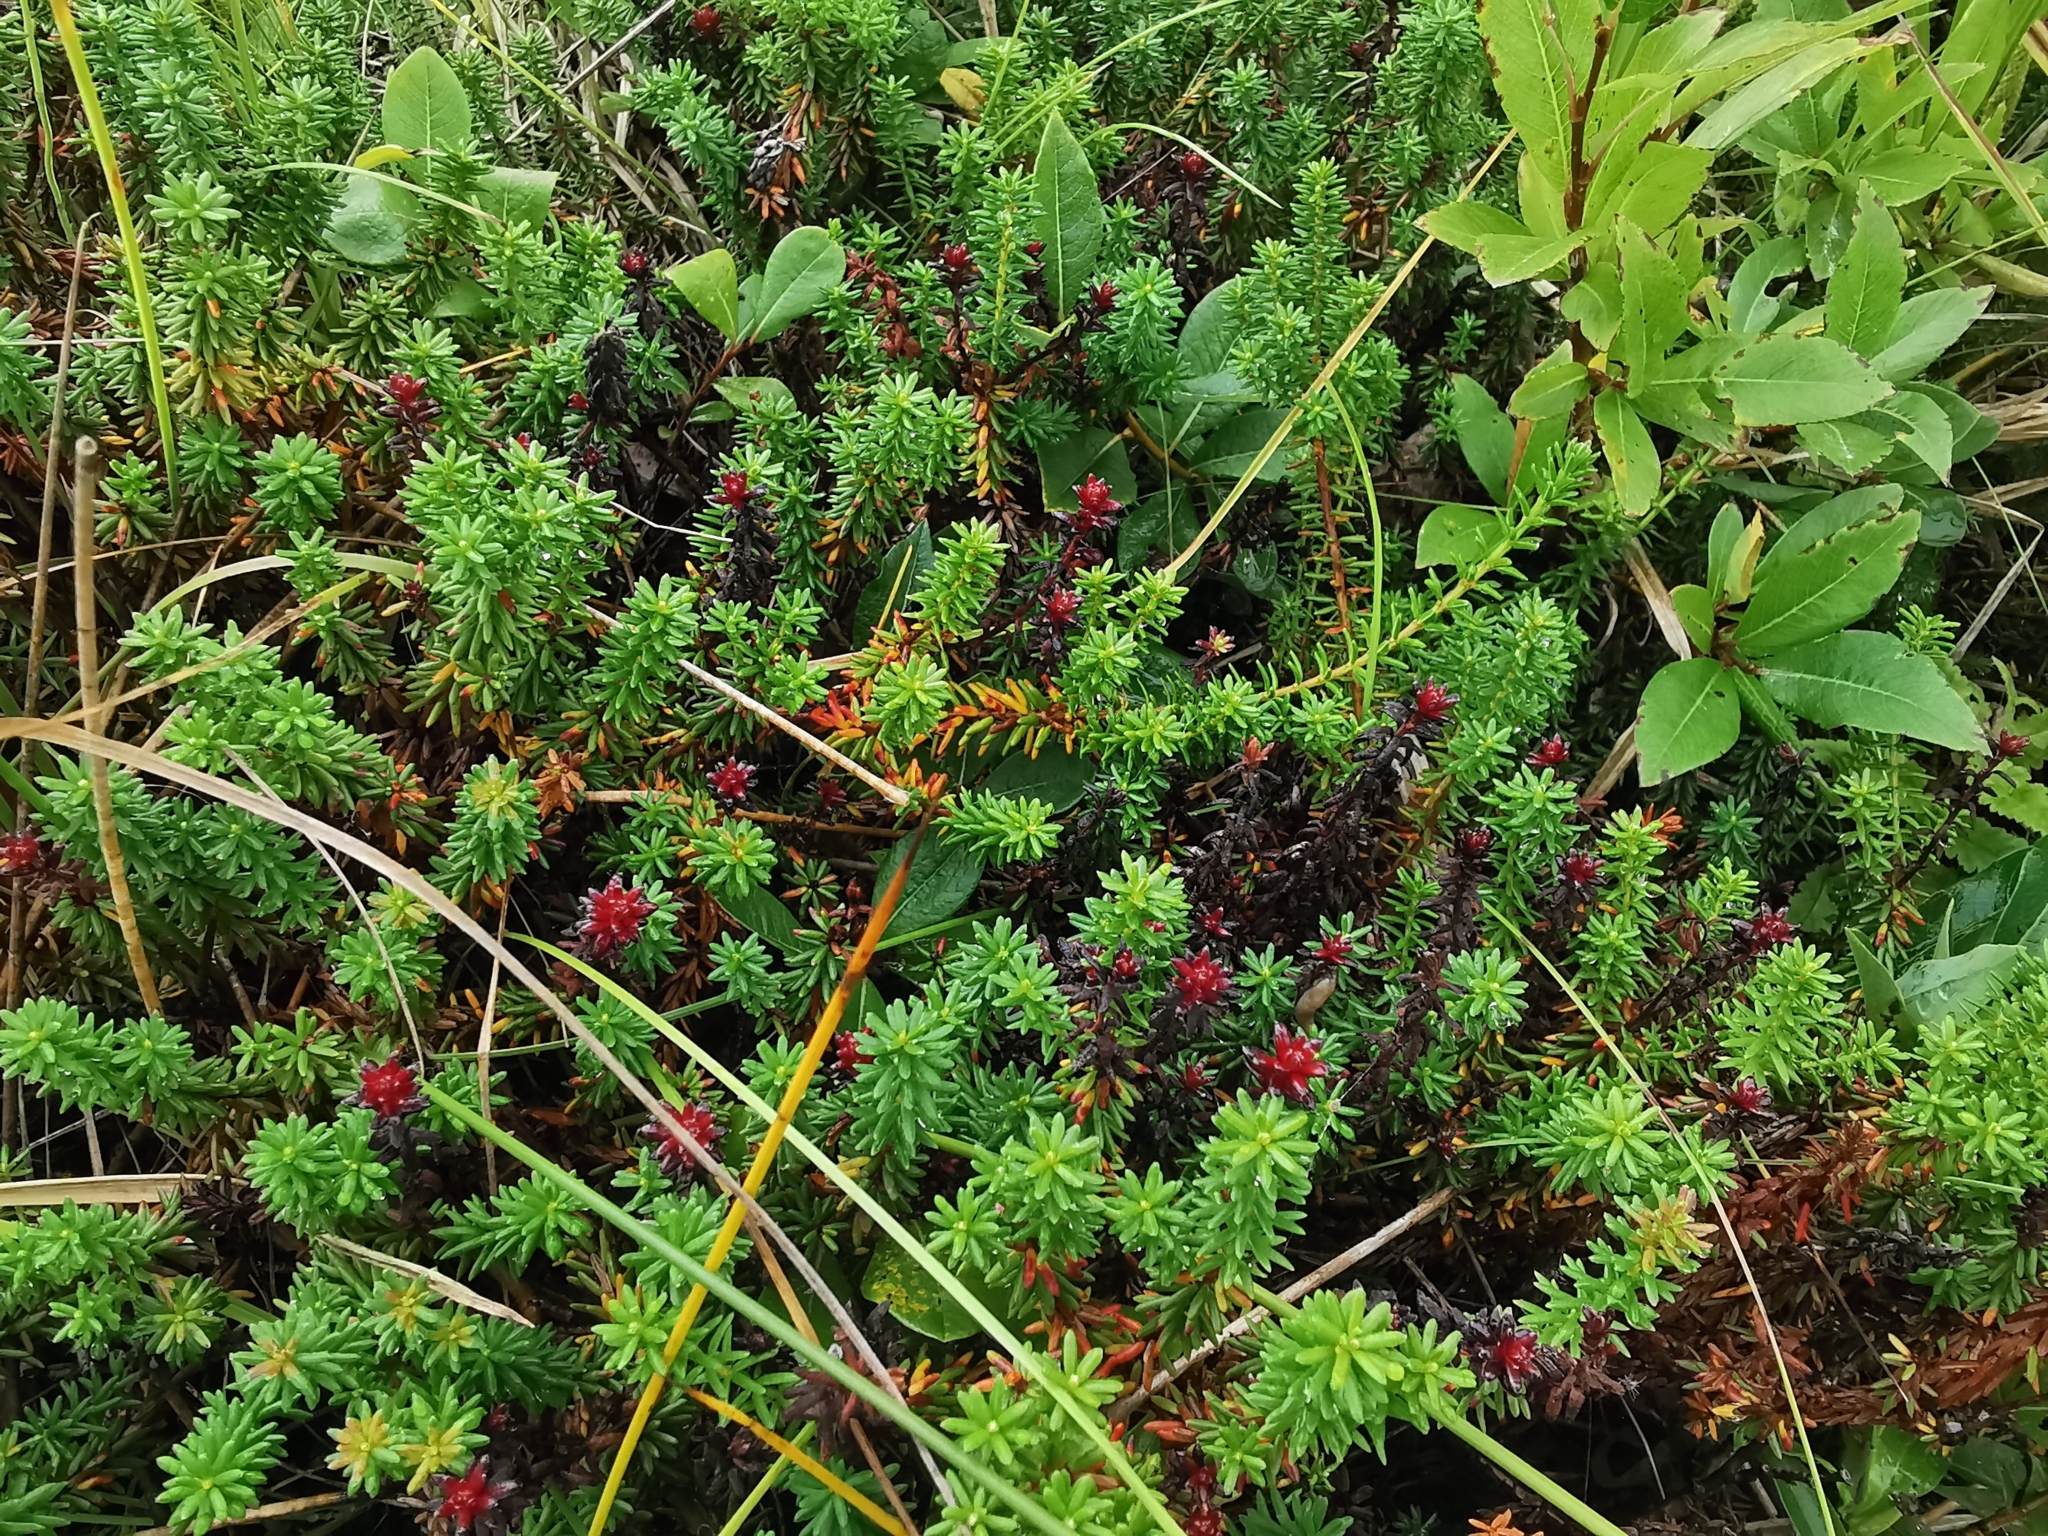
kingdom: Plantae
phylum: Tracheophyta
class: Magnoliopsida
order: Ericales
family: Ericaceae
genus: Empetrum
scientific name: Empetrum nigrum
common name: Black crowberry
